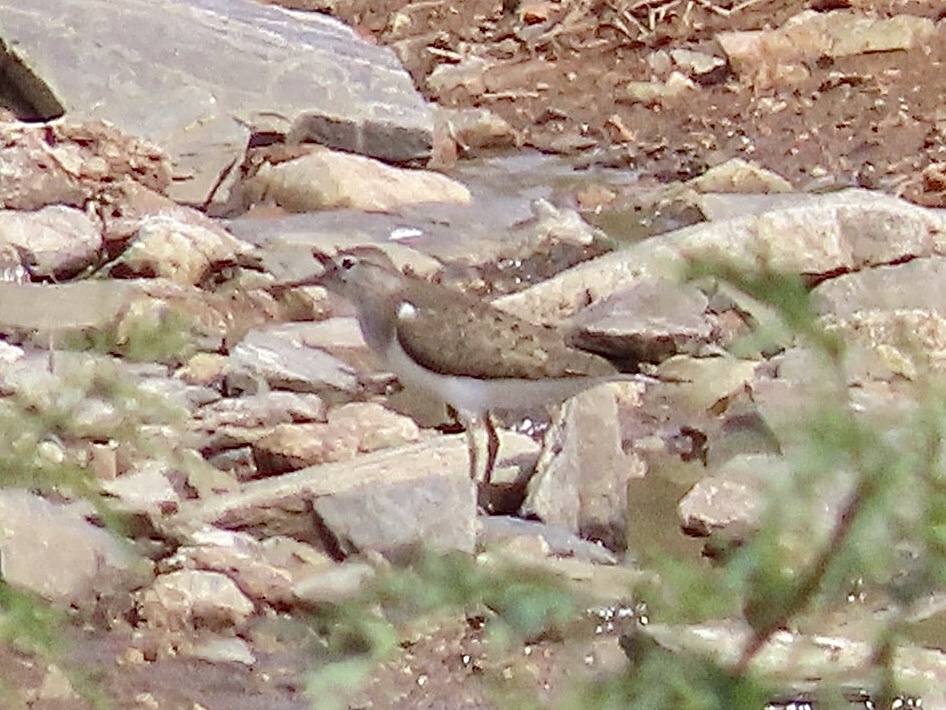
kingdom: Animalia
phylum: Chordata
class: Aves
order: Charadriiformes
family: Scolopacidae
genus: Actitis
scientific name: Actitis hypoleucos
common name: Common sandpiper
